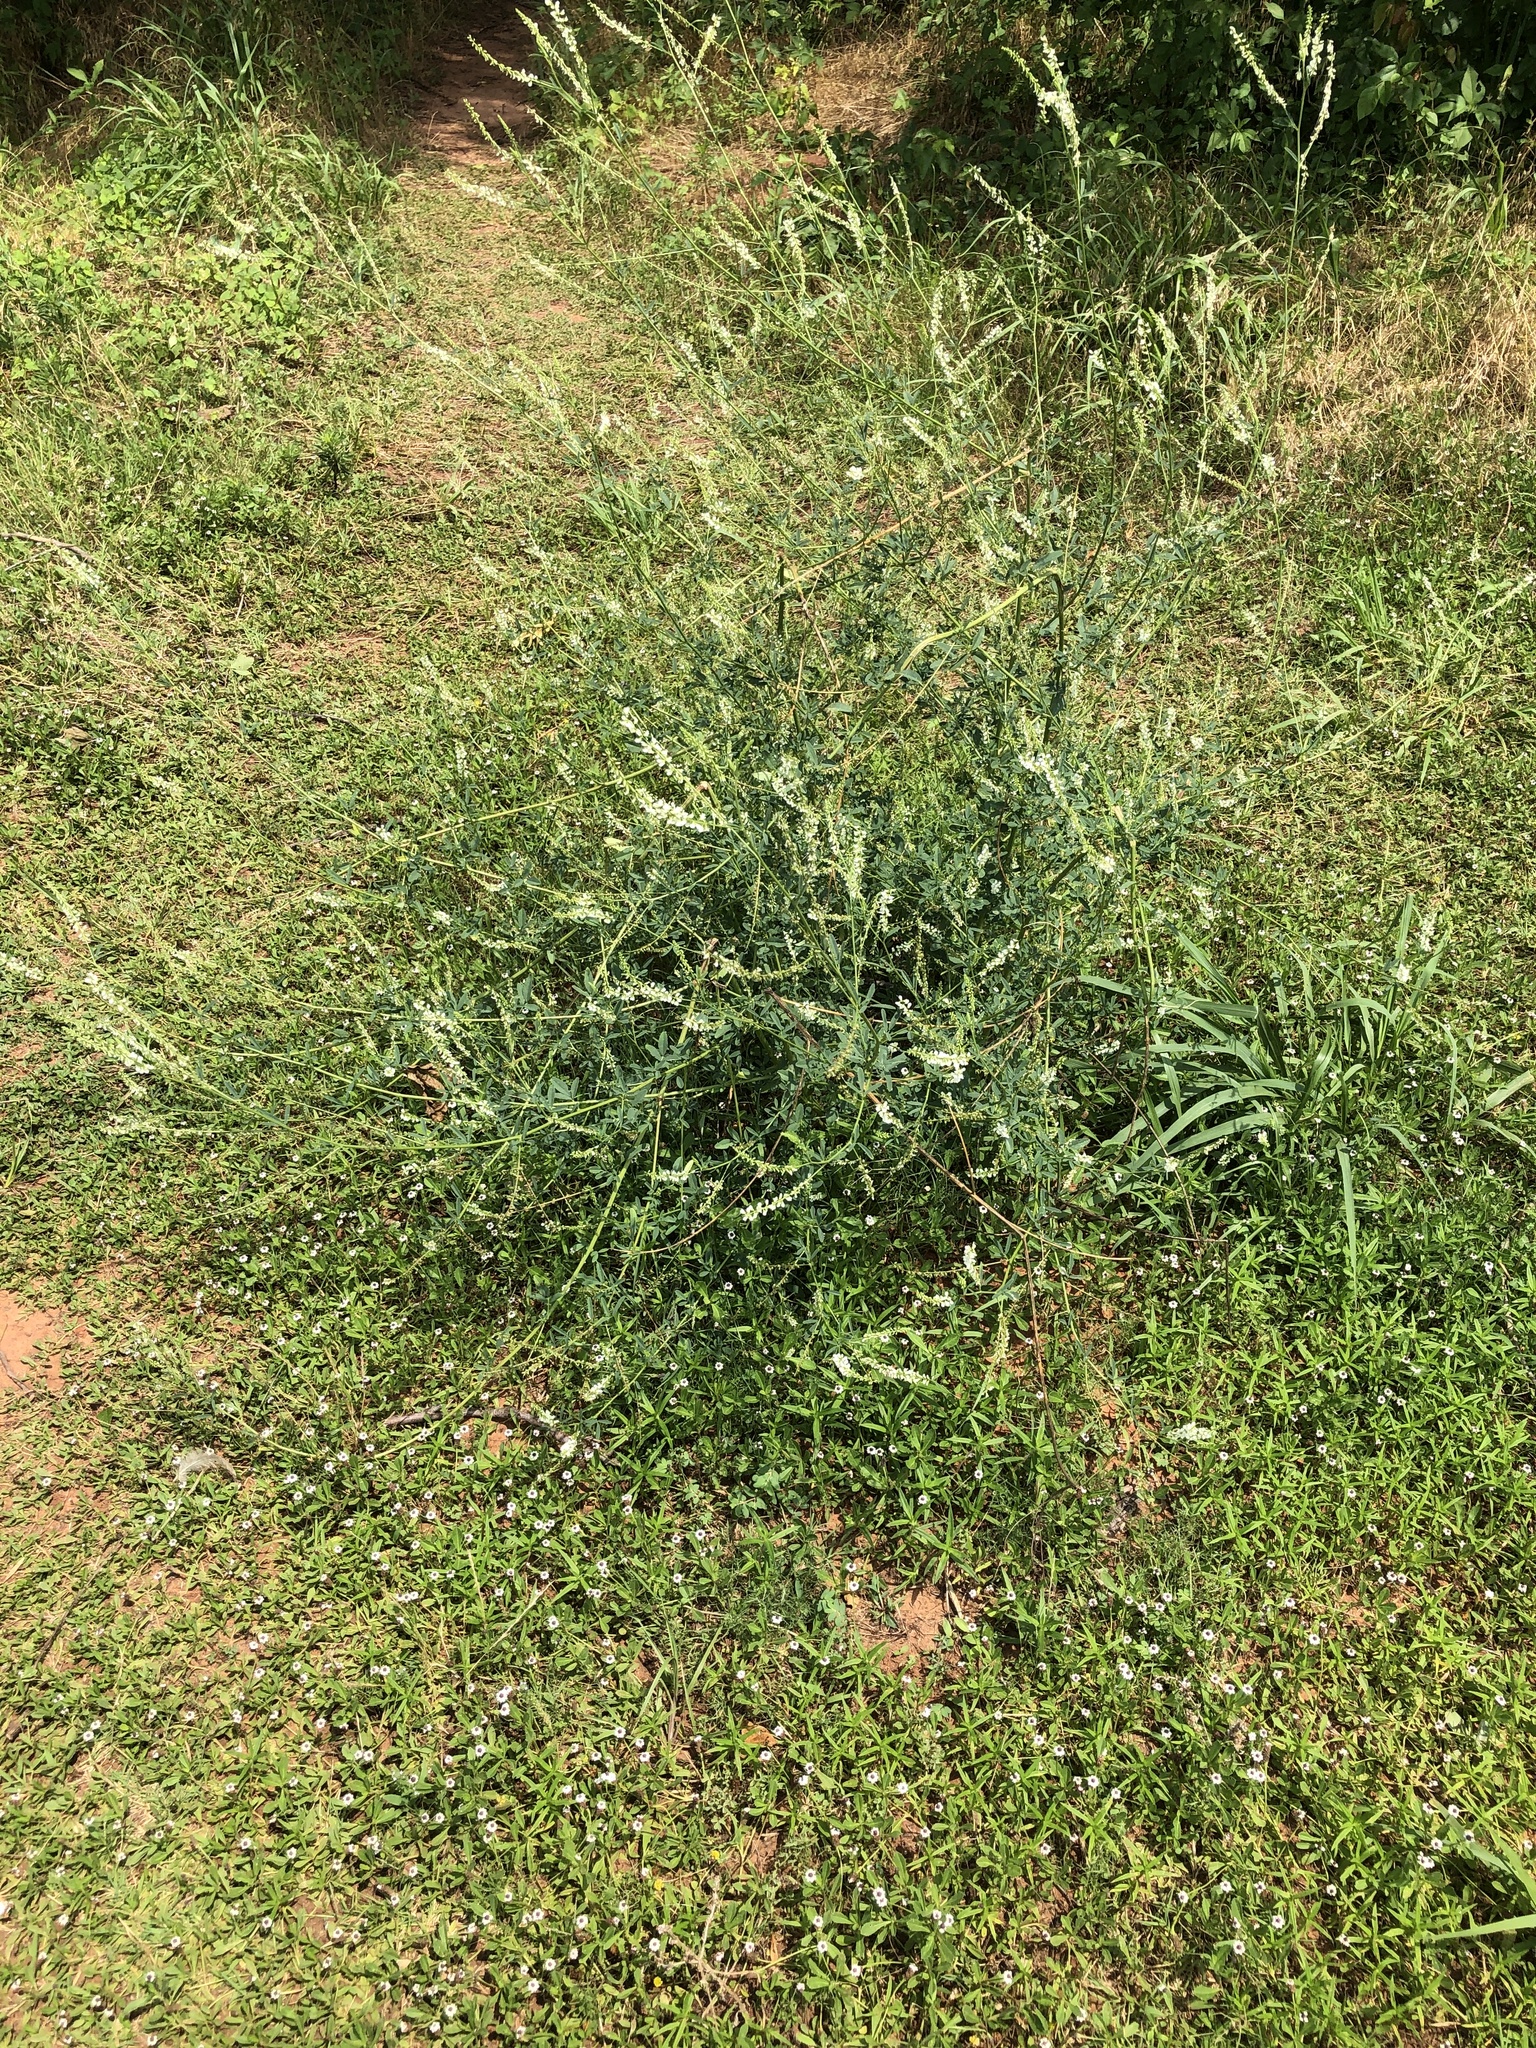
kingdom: Plantae
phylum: Tracheophyta
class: Magnoliopsida
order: Fabales
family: Fabaceae
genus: Melilotus
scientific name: Melilotus albus
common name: White melilot
